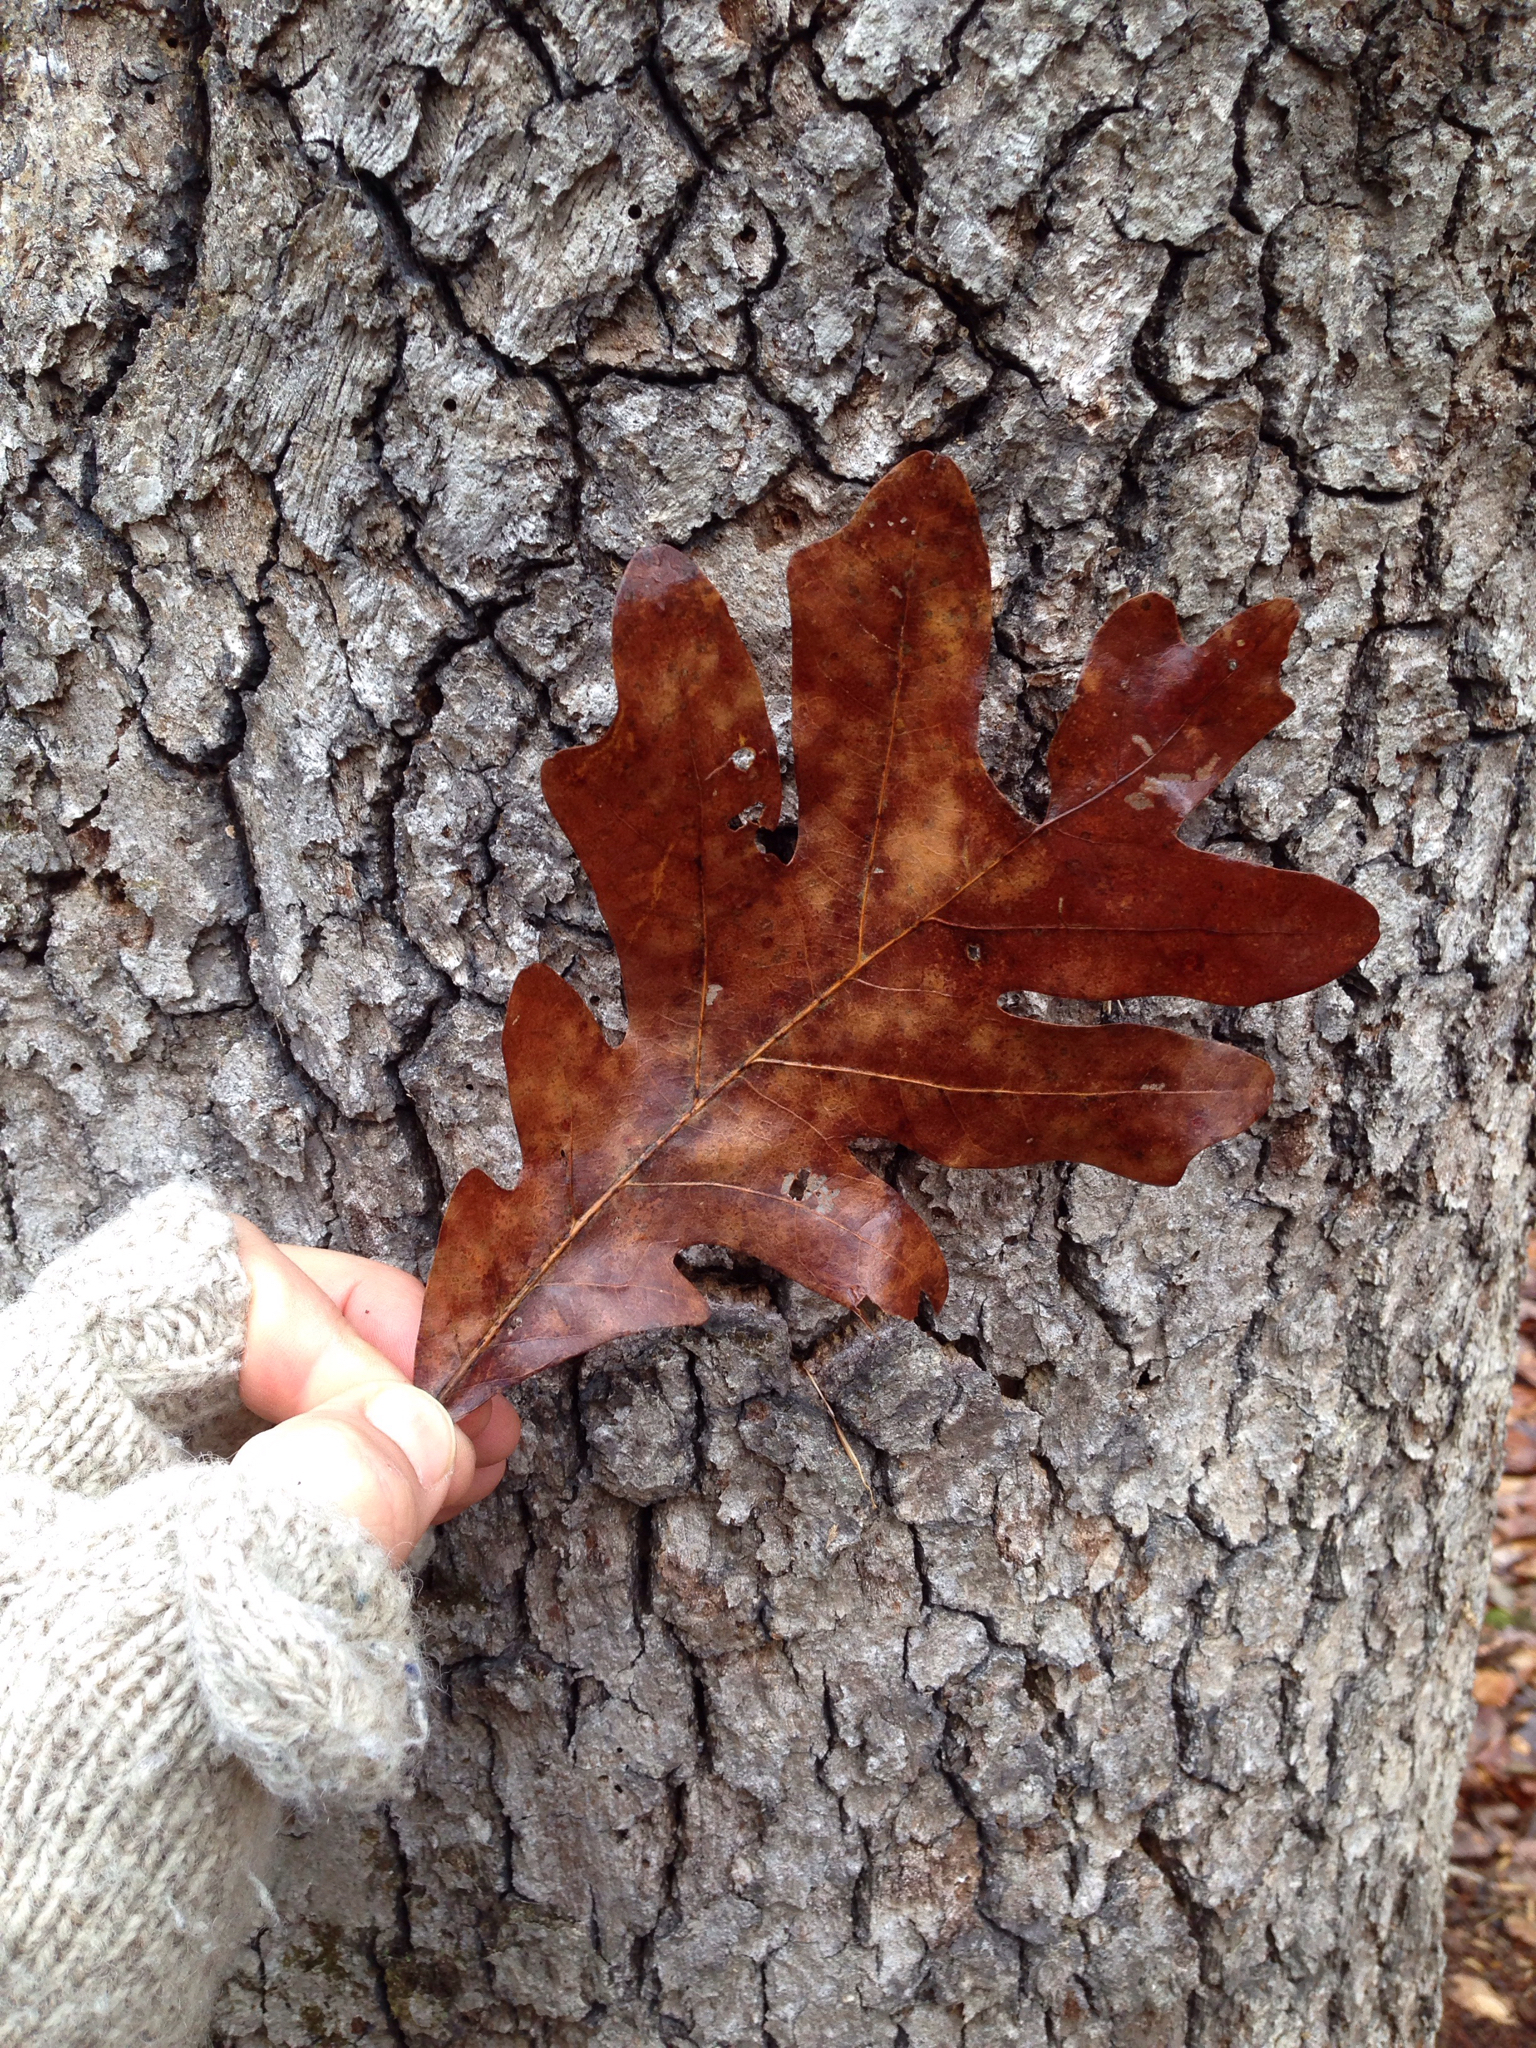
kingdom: Plantae
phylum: Tracheophyta
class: Magnoliopsida
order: Fagales
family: Fagaceae
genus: Quercus
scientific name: Quercus alba
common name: White oak
